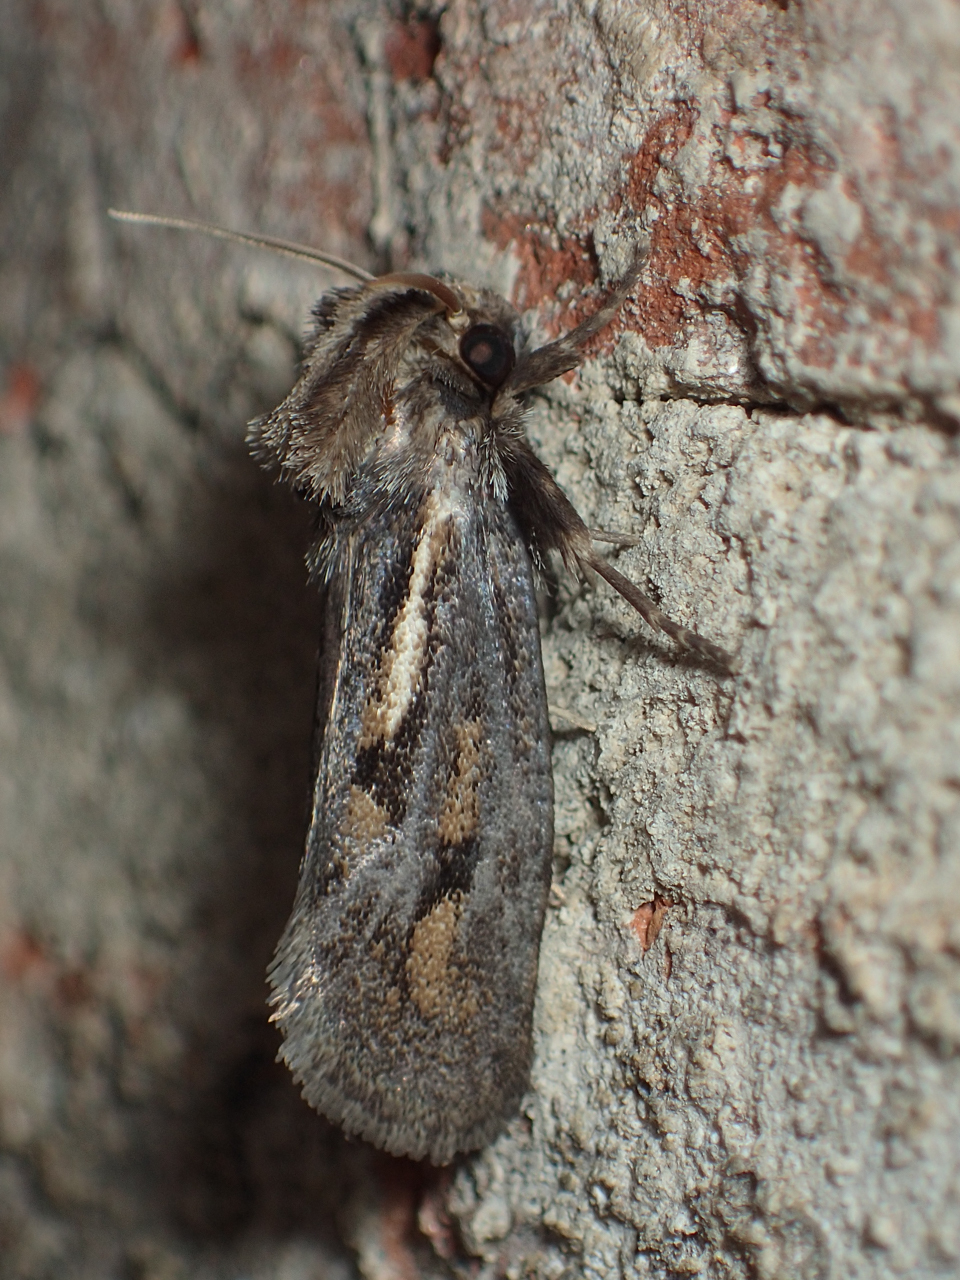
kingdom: Animalia
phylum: Arthropoda
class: Insecta
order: Lepidoptera
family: Tineidae
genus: Acrolophus
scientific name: Acrolophus popeanella
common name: Clemens' grass tubeworm moth
